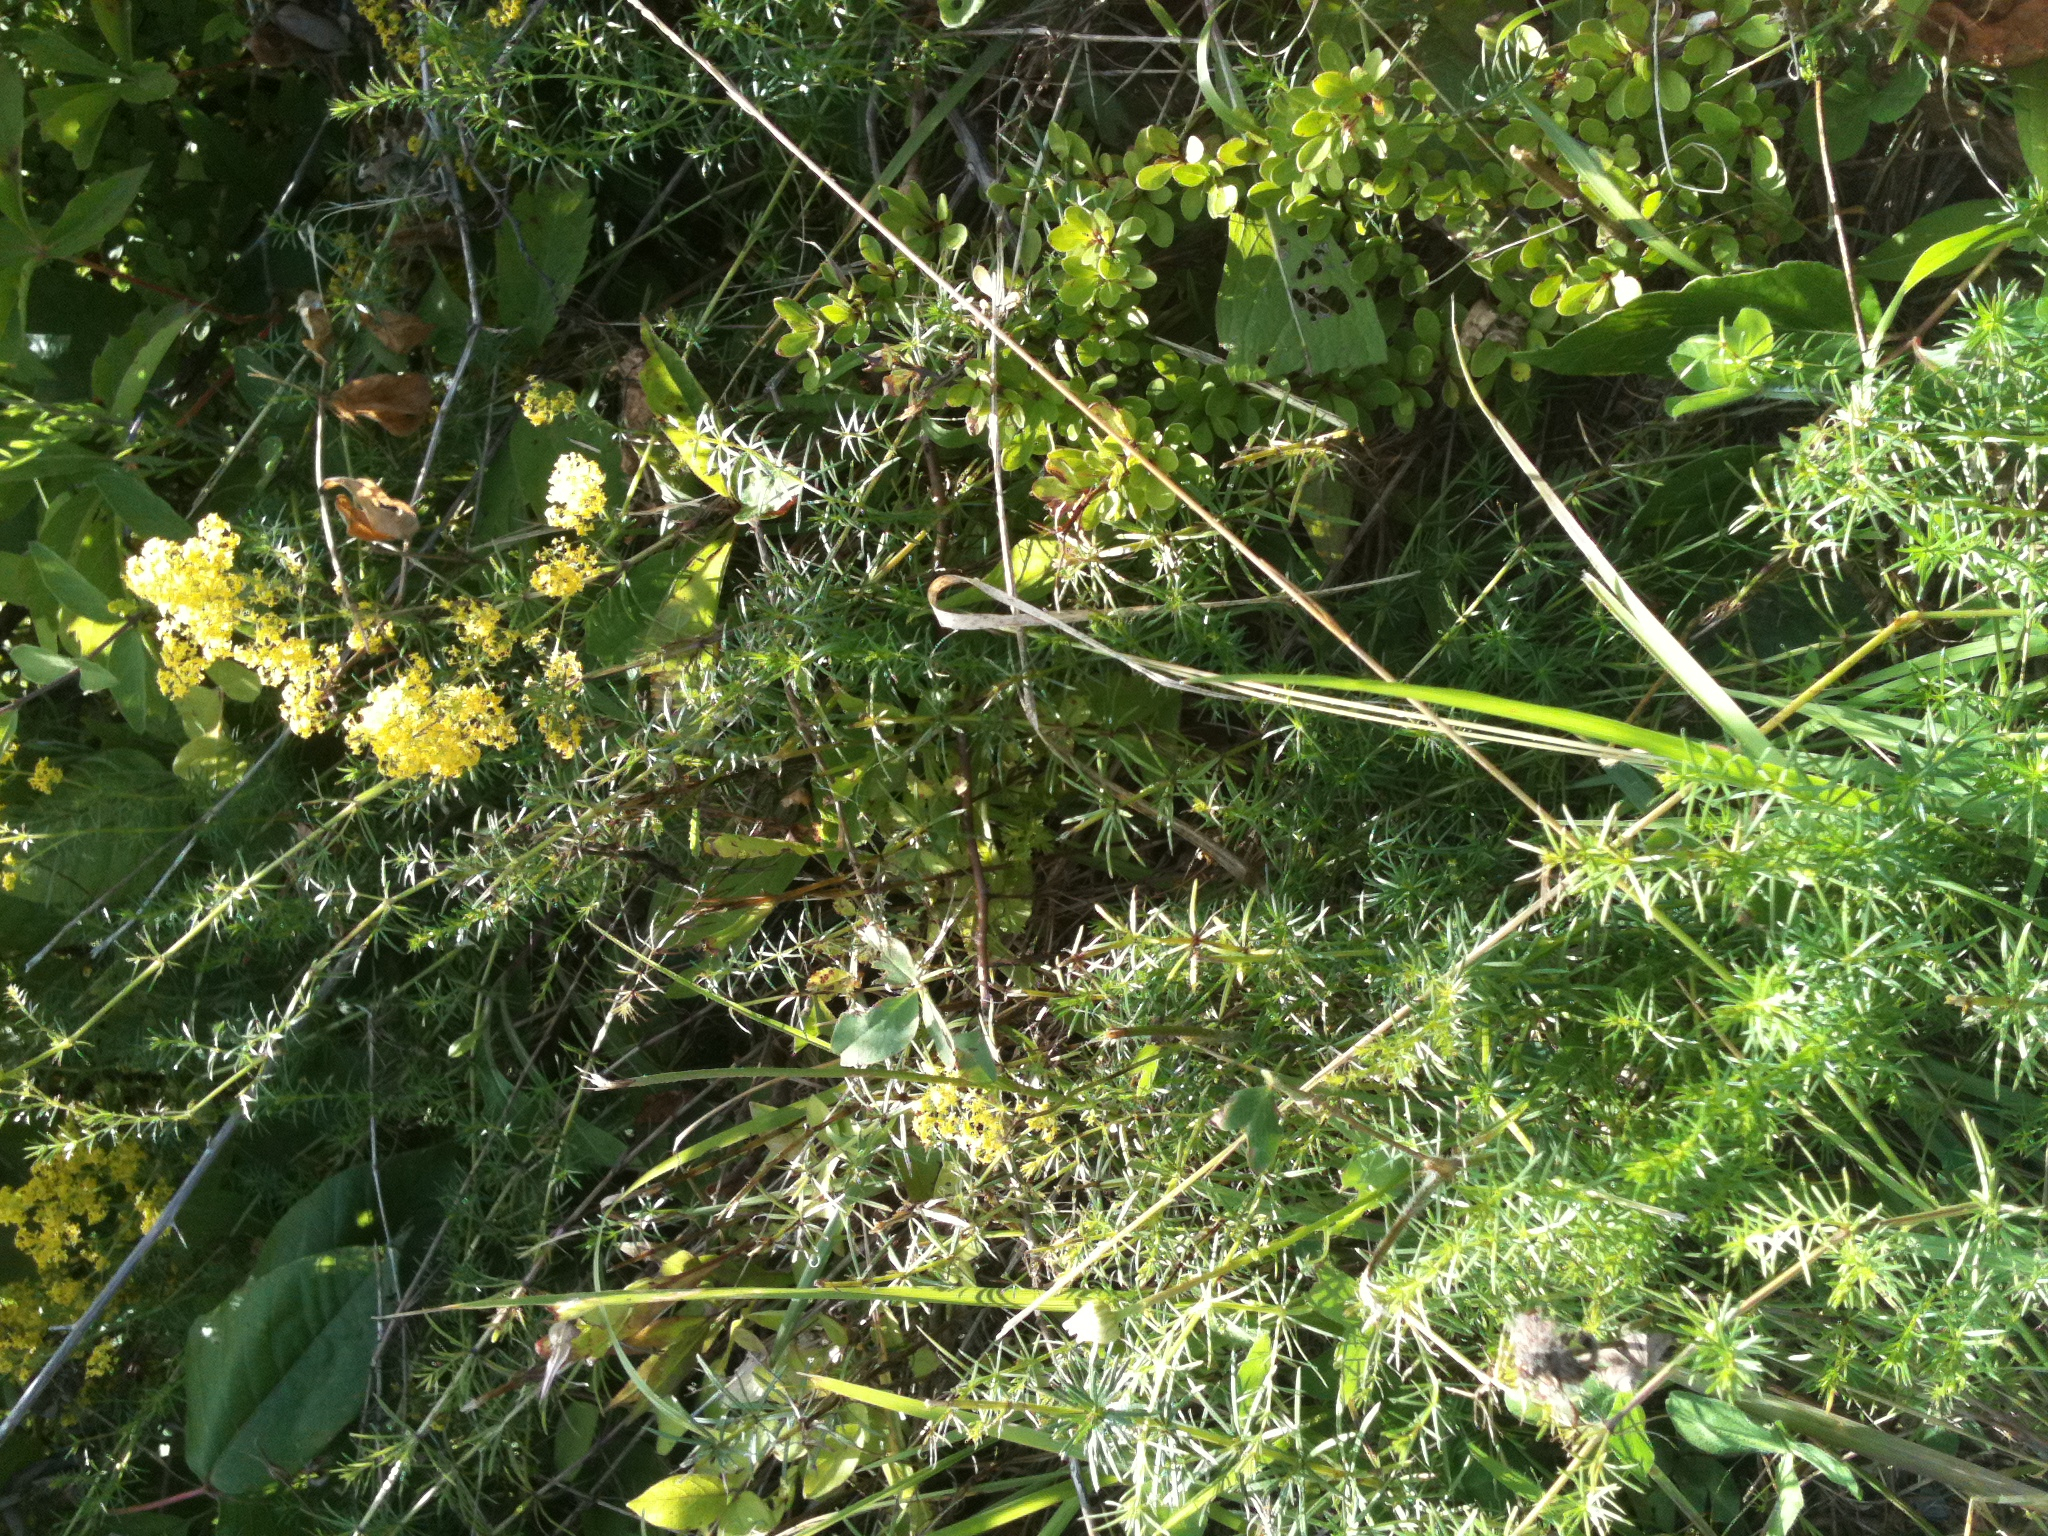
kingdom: Plantae
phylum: Tracheophyta
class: Magnoliopsida
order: Gentianales
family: Rubiaceae
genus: Galium
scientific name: Galium verum
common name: Lady's bedstraw
